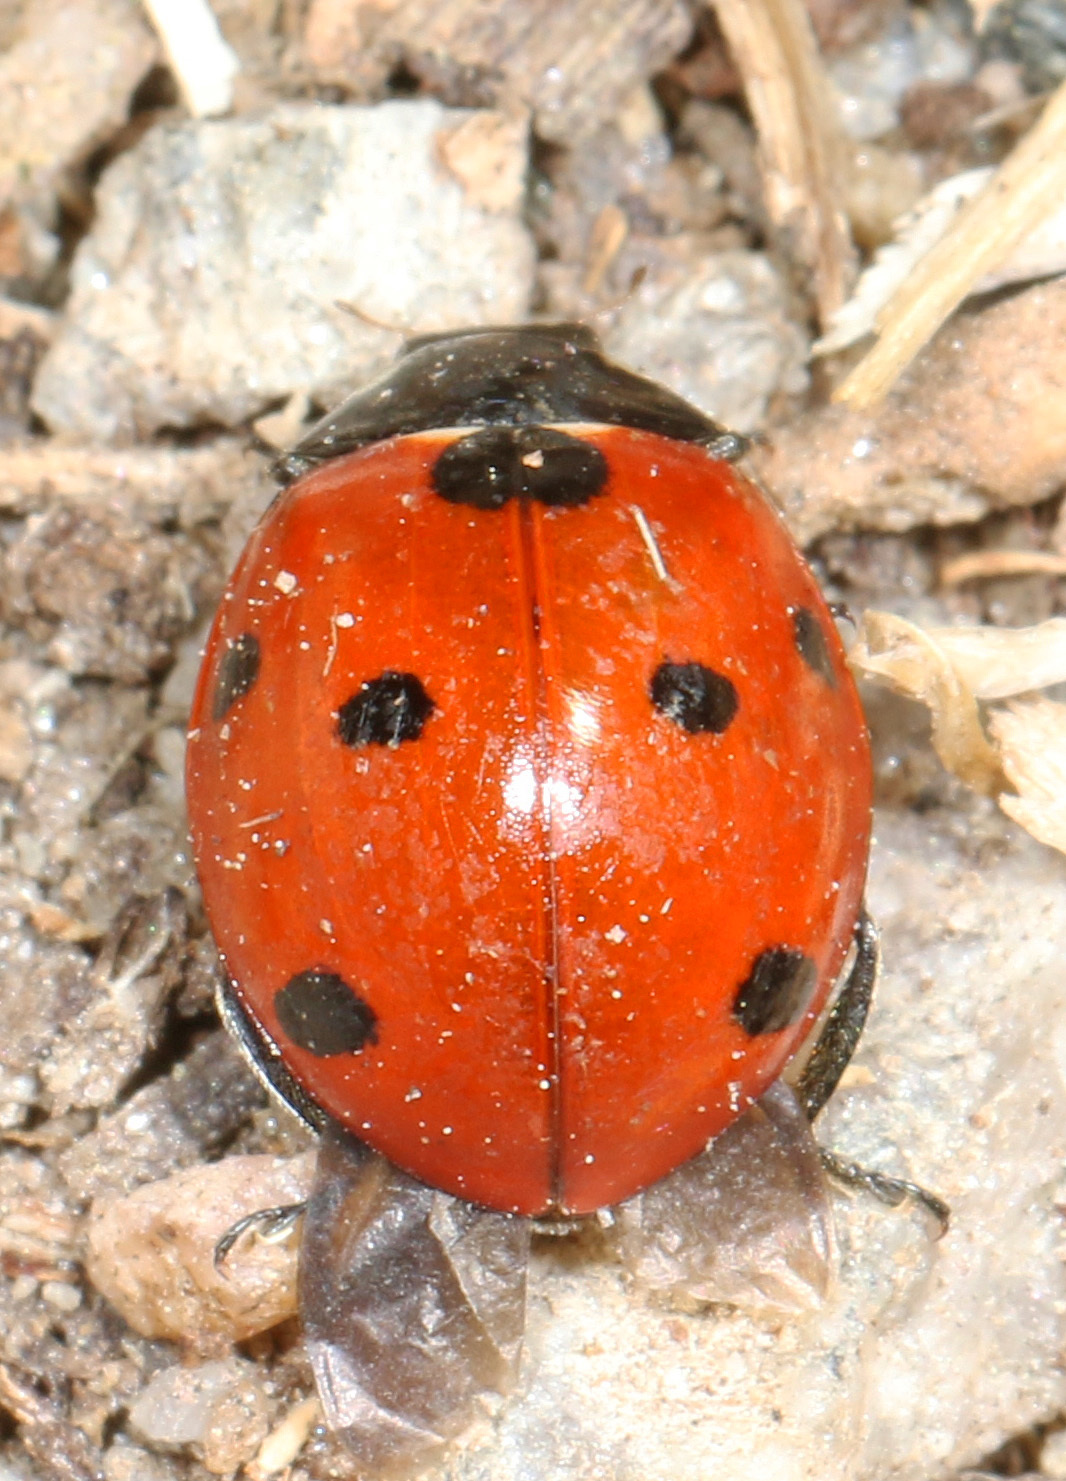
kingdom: Animalia
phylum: Arthropoda
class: Insecta
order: Coleoptera
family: Coccinellidae
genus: Coccinella
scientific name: Coccinella septempunctata
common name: Sevenspotted lady beetle
